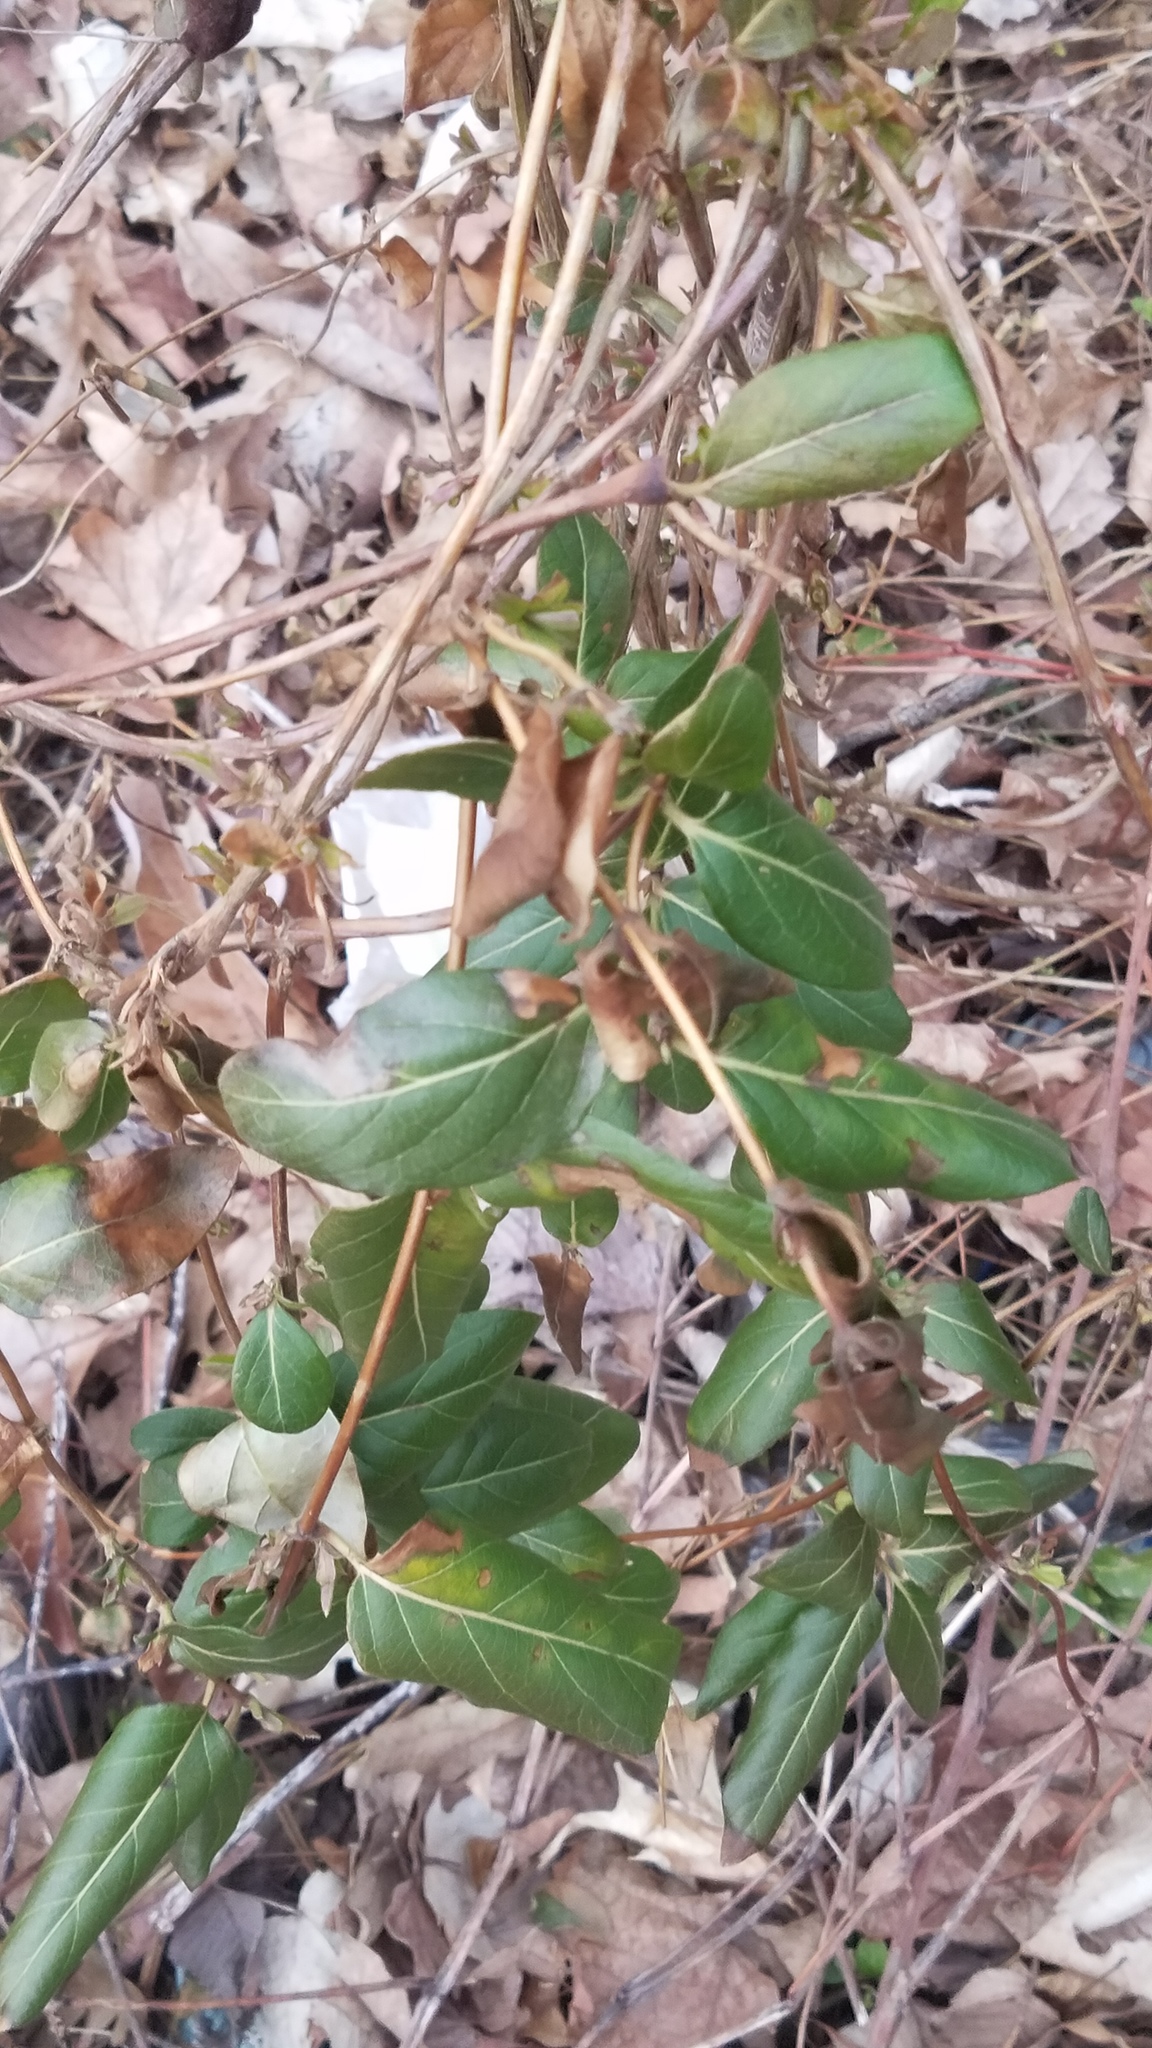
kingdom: Plantae
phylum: Tracheophyta
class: Magnoliopsida
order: Dipsacales
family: Caprifoliaceae
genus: Lonicera
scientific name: Lonicera japonica
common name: Japanese honeysuckle
